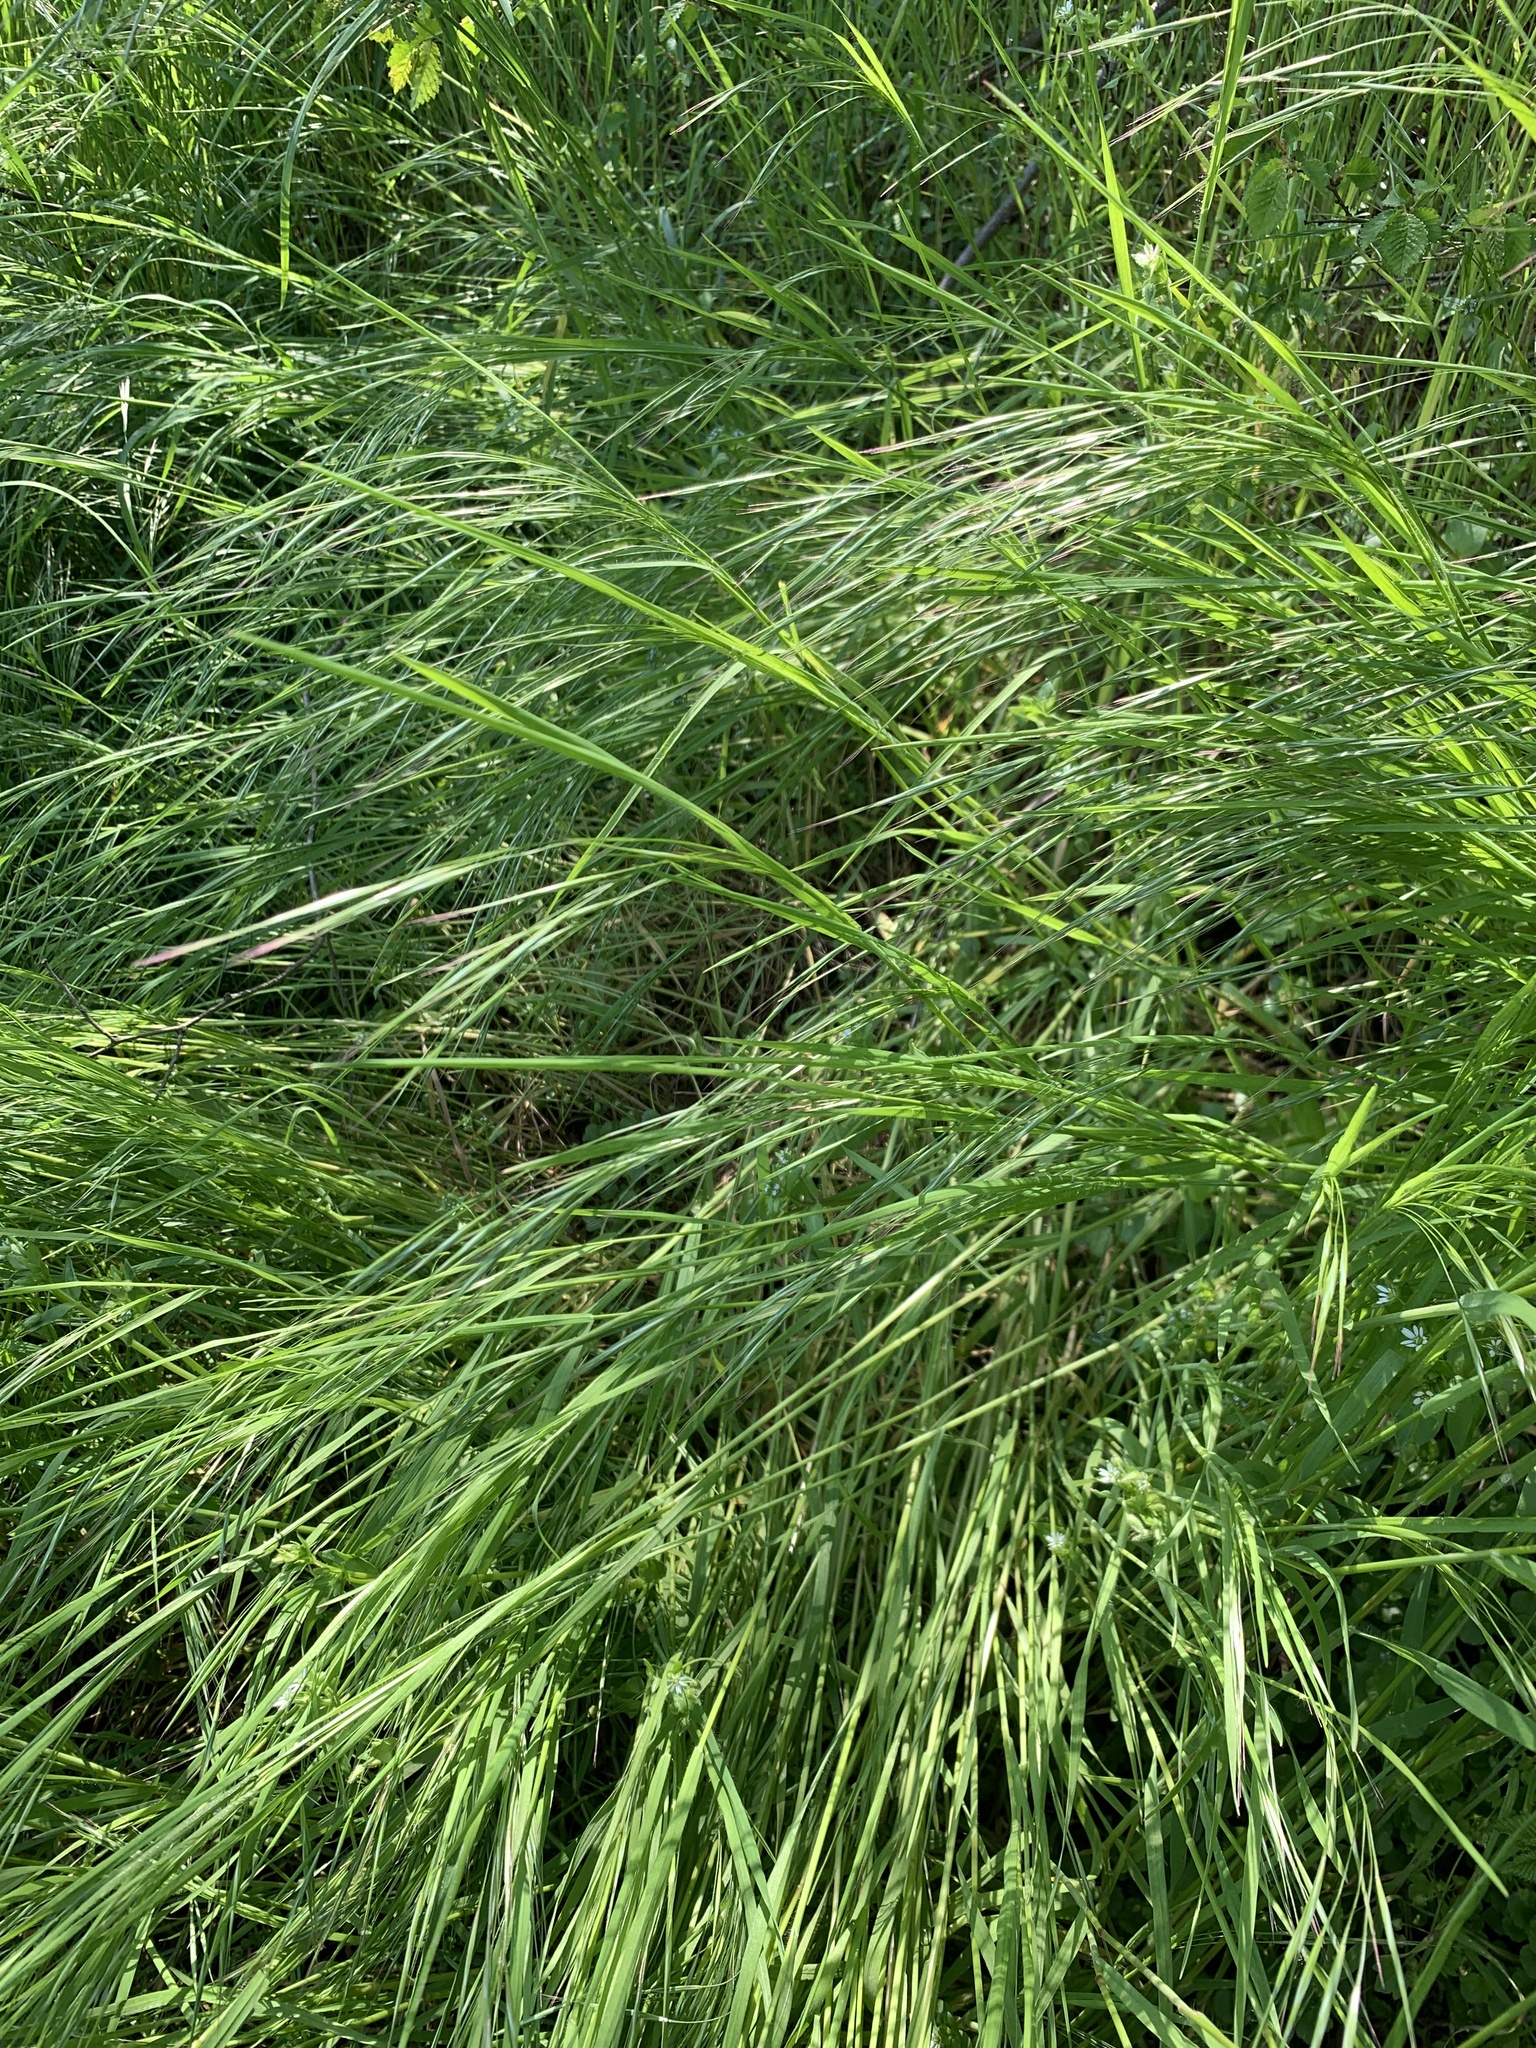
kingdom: Plantae
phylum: Tracheophyta
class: Liliopsida
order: Poales
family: Poaceae
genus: Bromus
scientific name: Bromus sterilis
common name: Poverty brome
